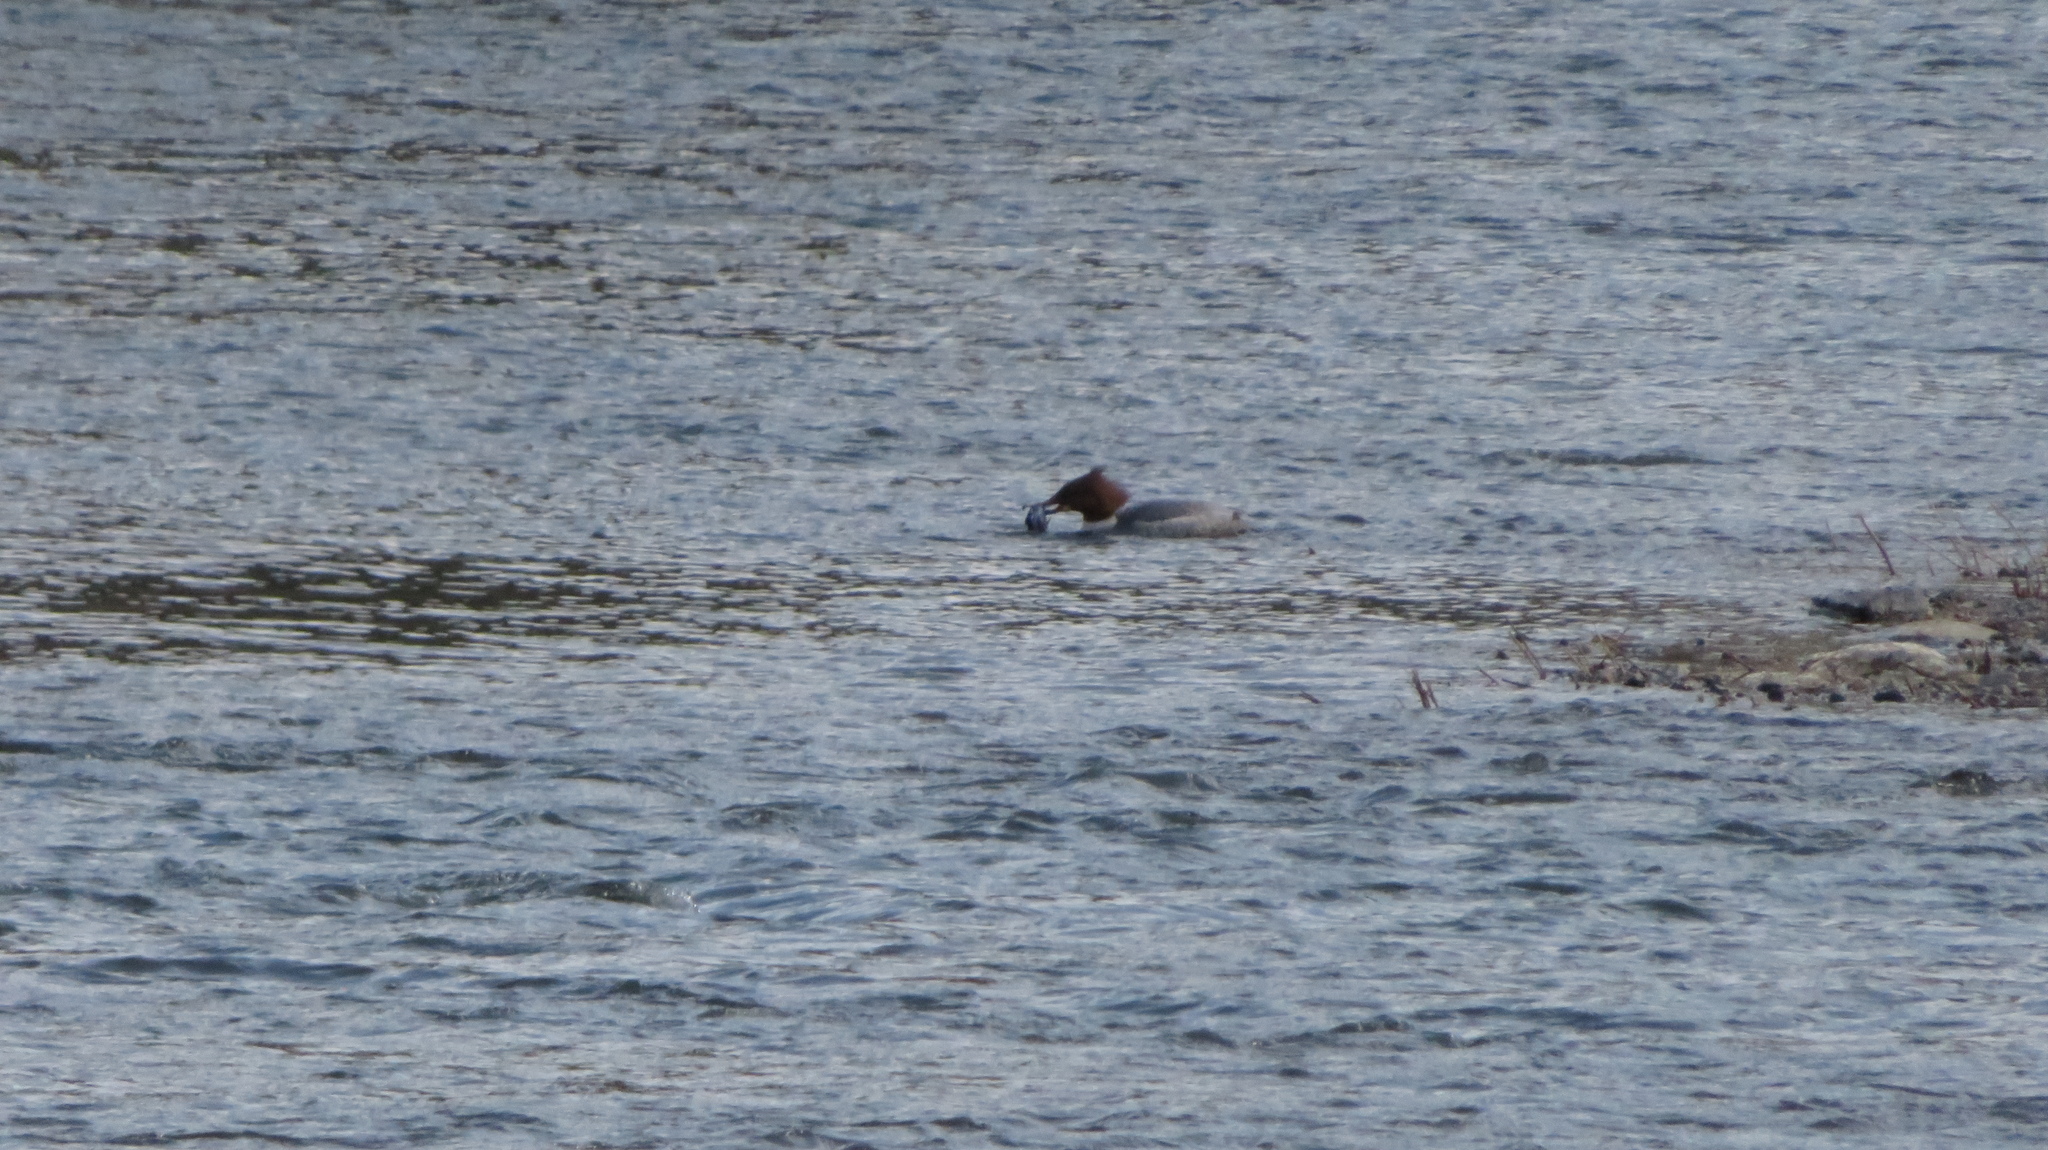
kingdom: Animalia
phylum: Chordata
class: Aves
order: Anseriformes
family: Anatidae
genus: Mergus
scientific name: Mergus merganser
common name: Common merganser
